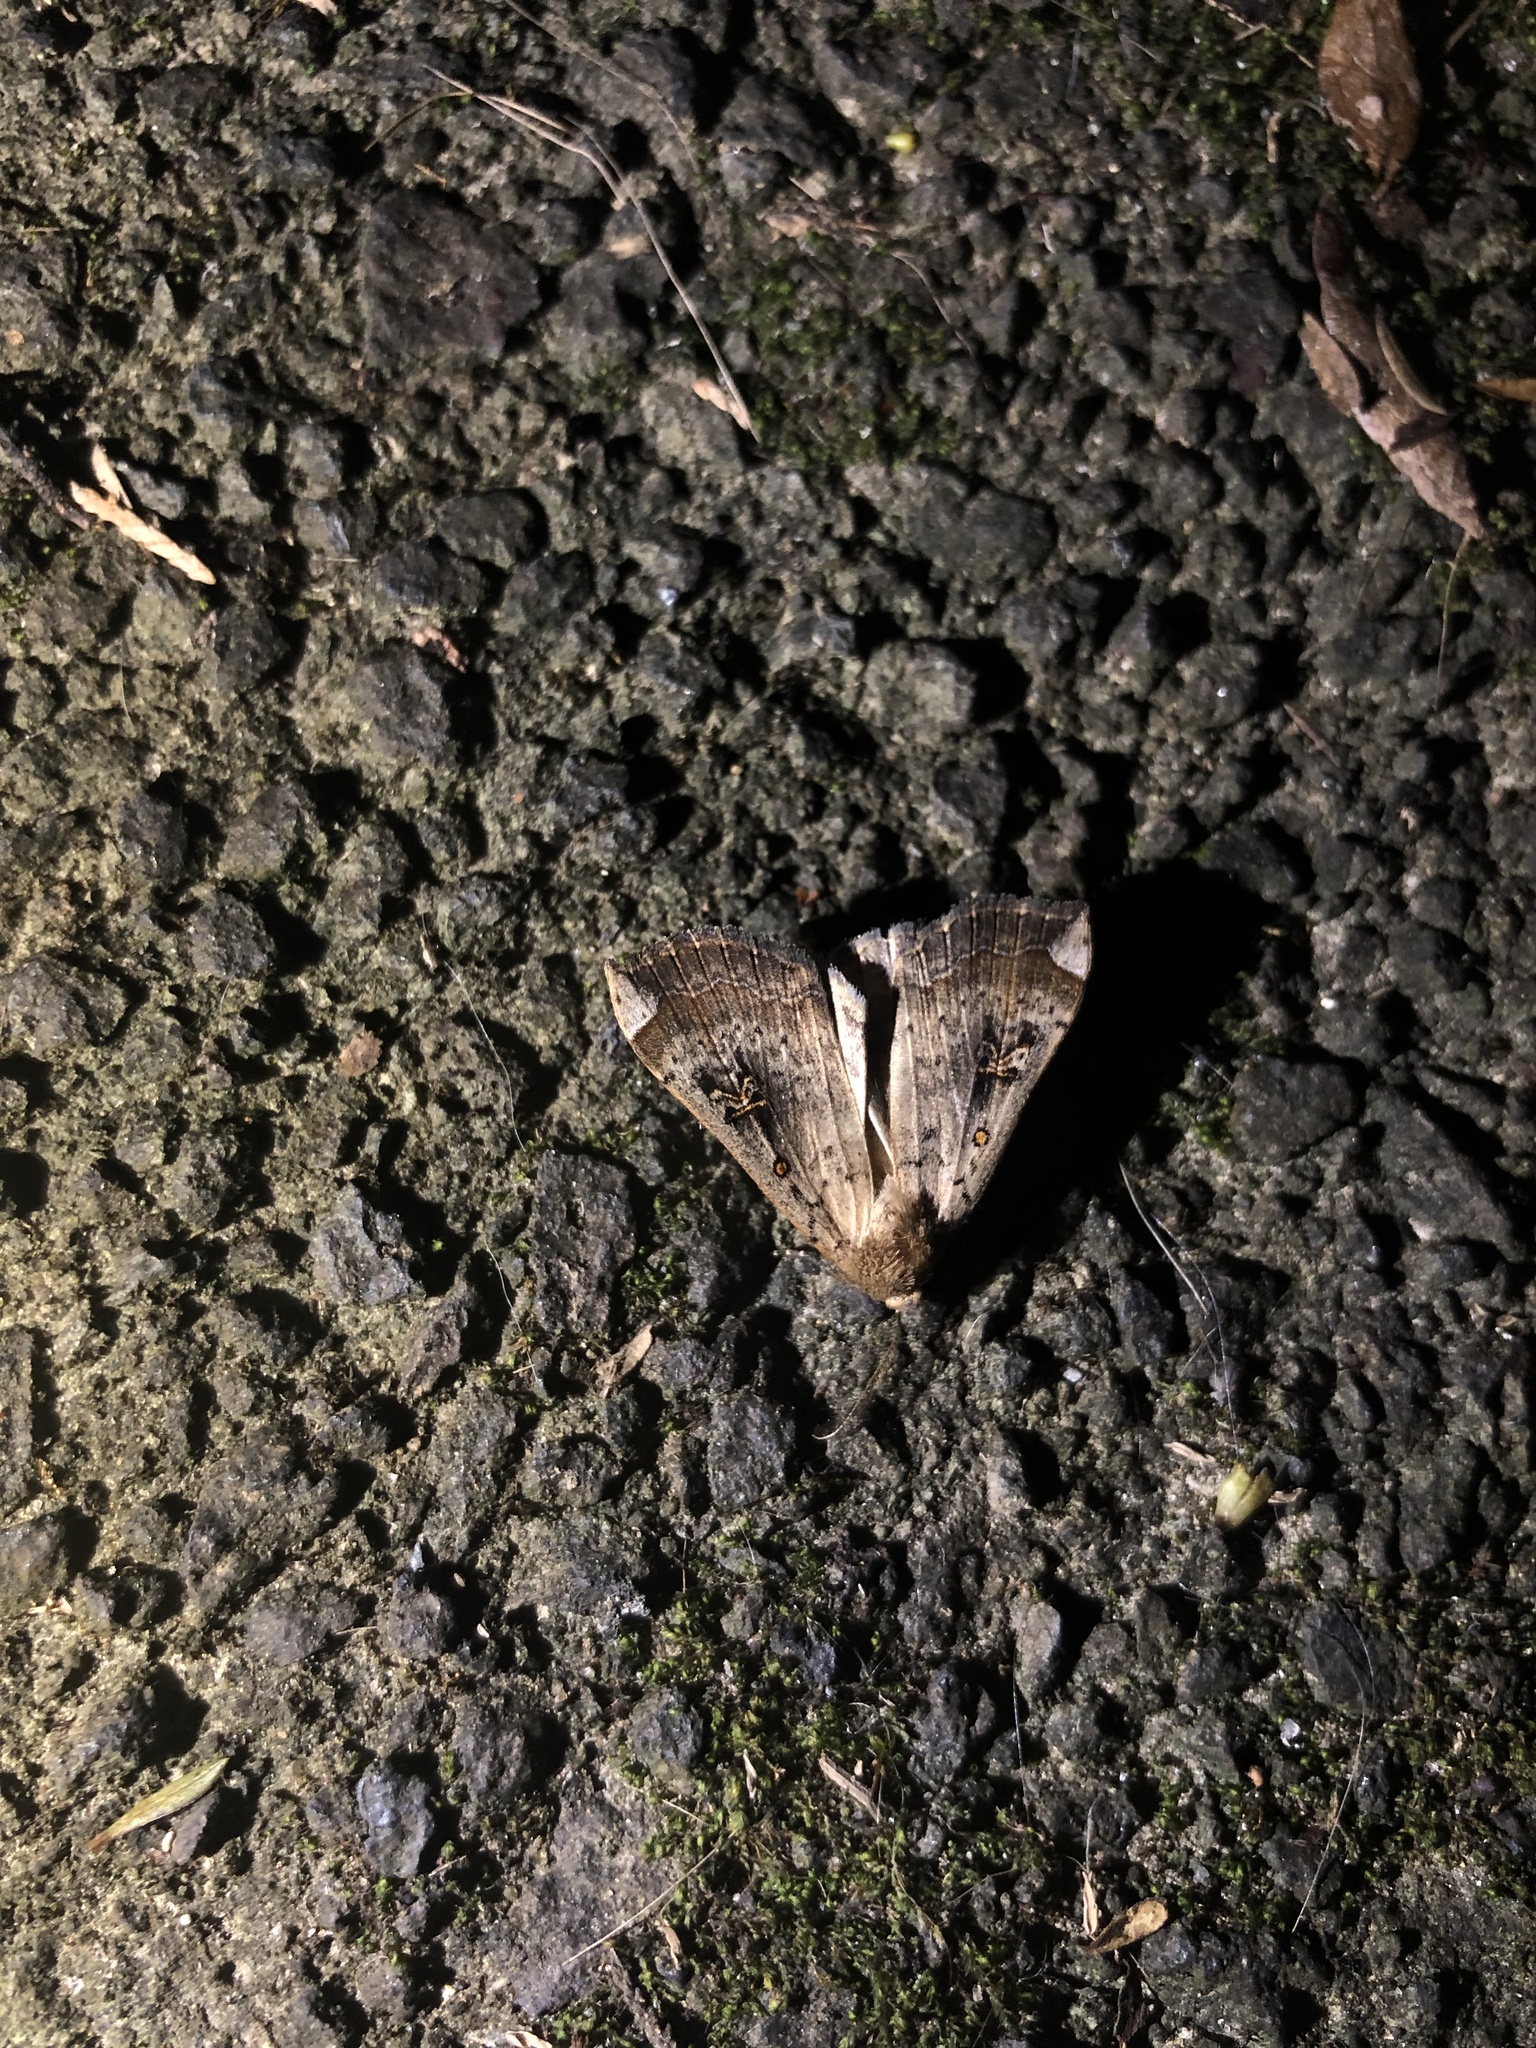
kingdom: Animalia
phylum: Arthropoda
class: Insecta
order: Lepidoptera
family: Erebidae
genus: Rhapsa
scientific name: Rhapsa scotosialis
